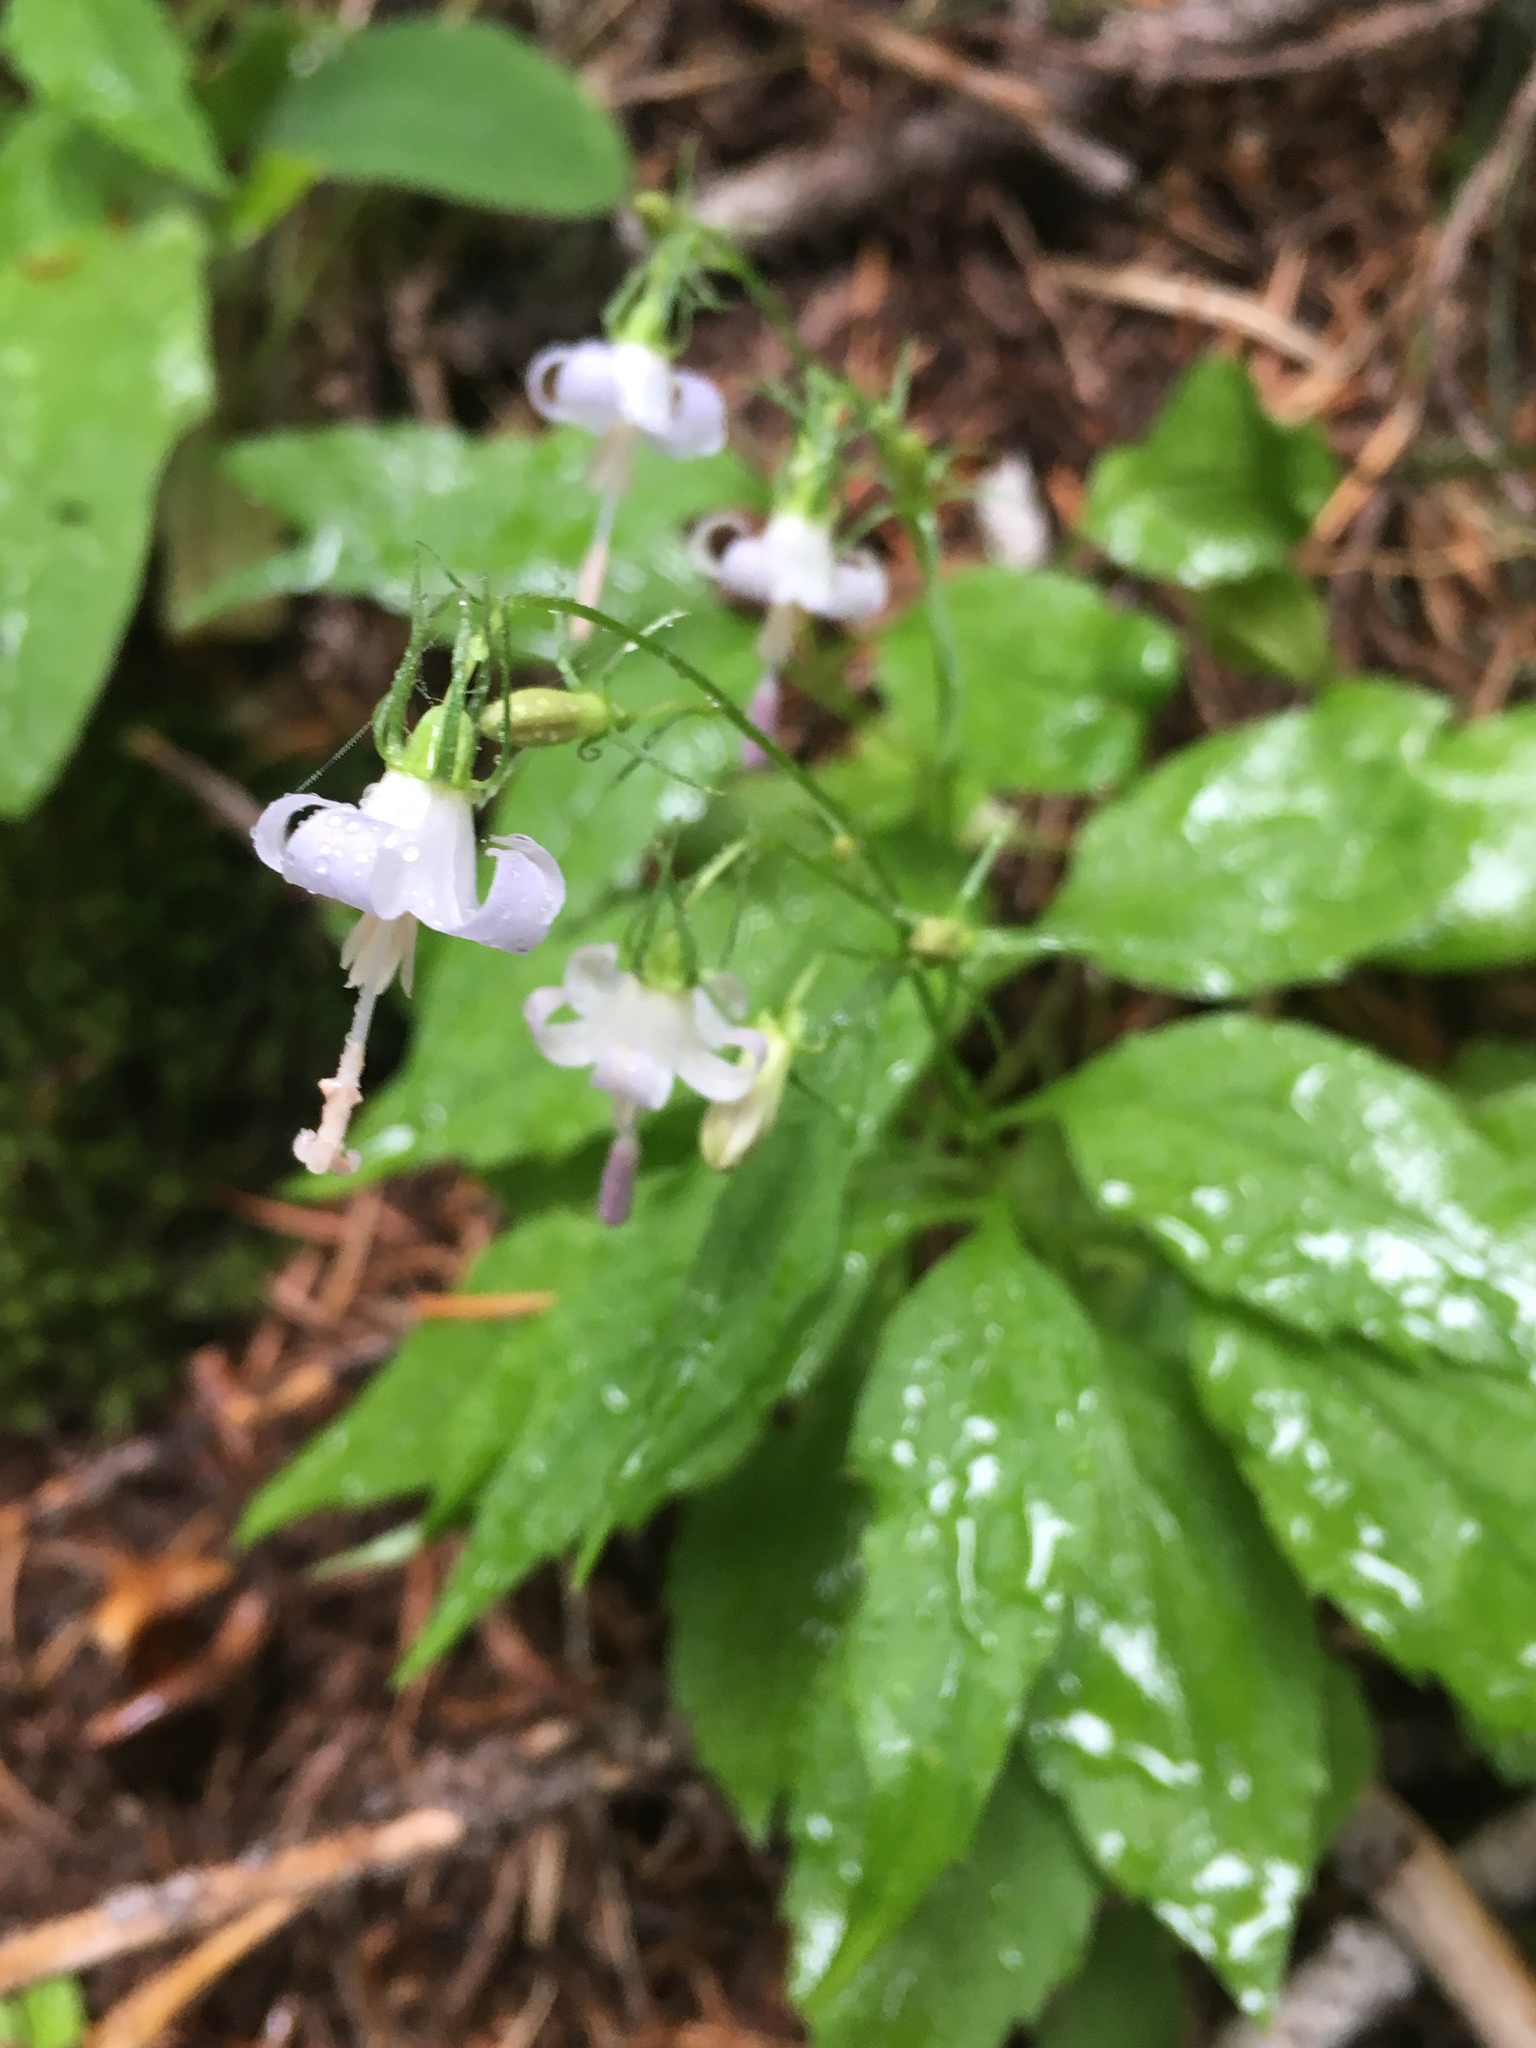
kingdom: Plantae
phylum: Tracheophyta
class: Magnoliopsida
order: Asterales
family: Campanulaceae
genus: Campanula
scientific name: Campanula scouleri
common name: Scouler's harebell
